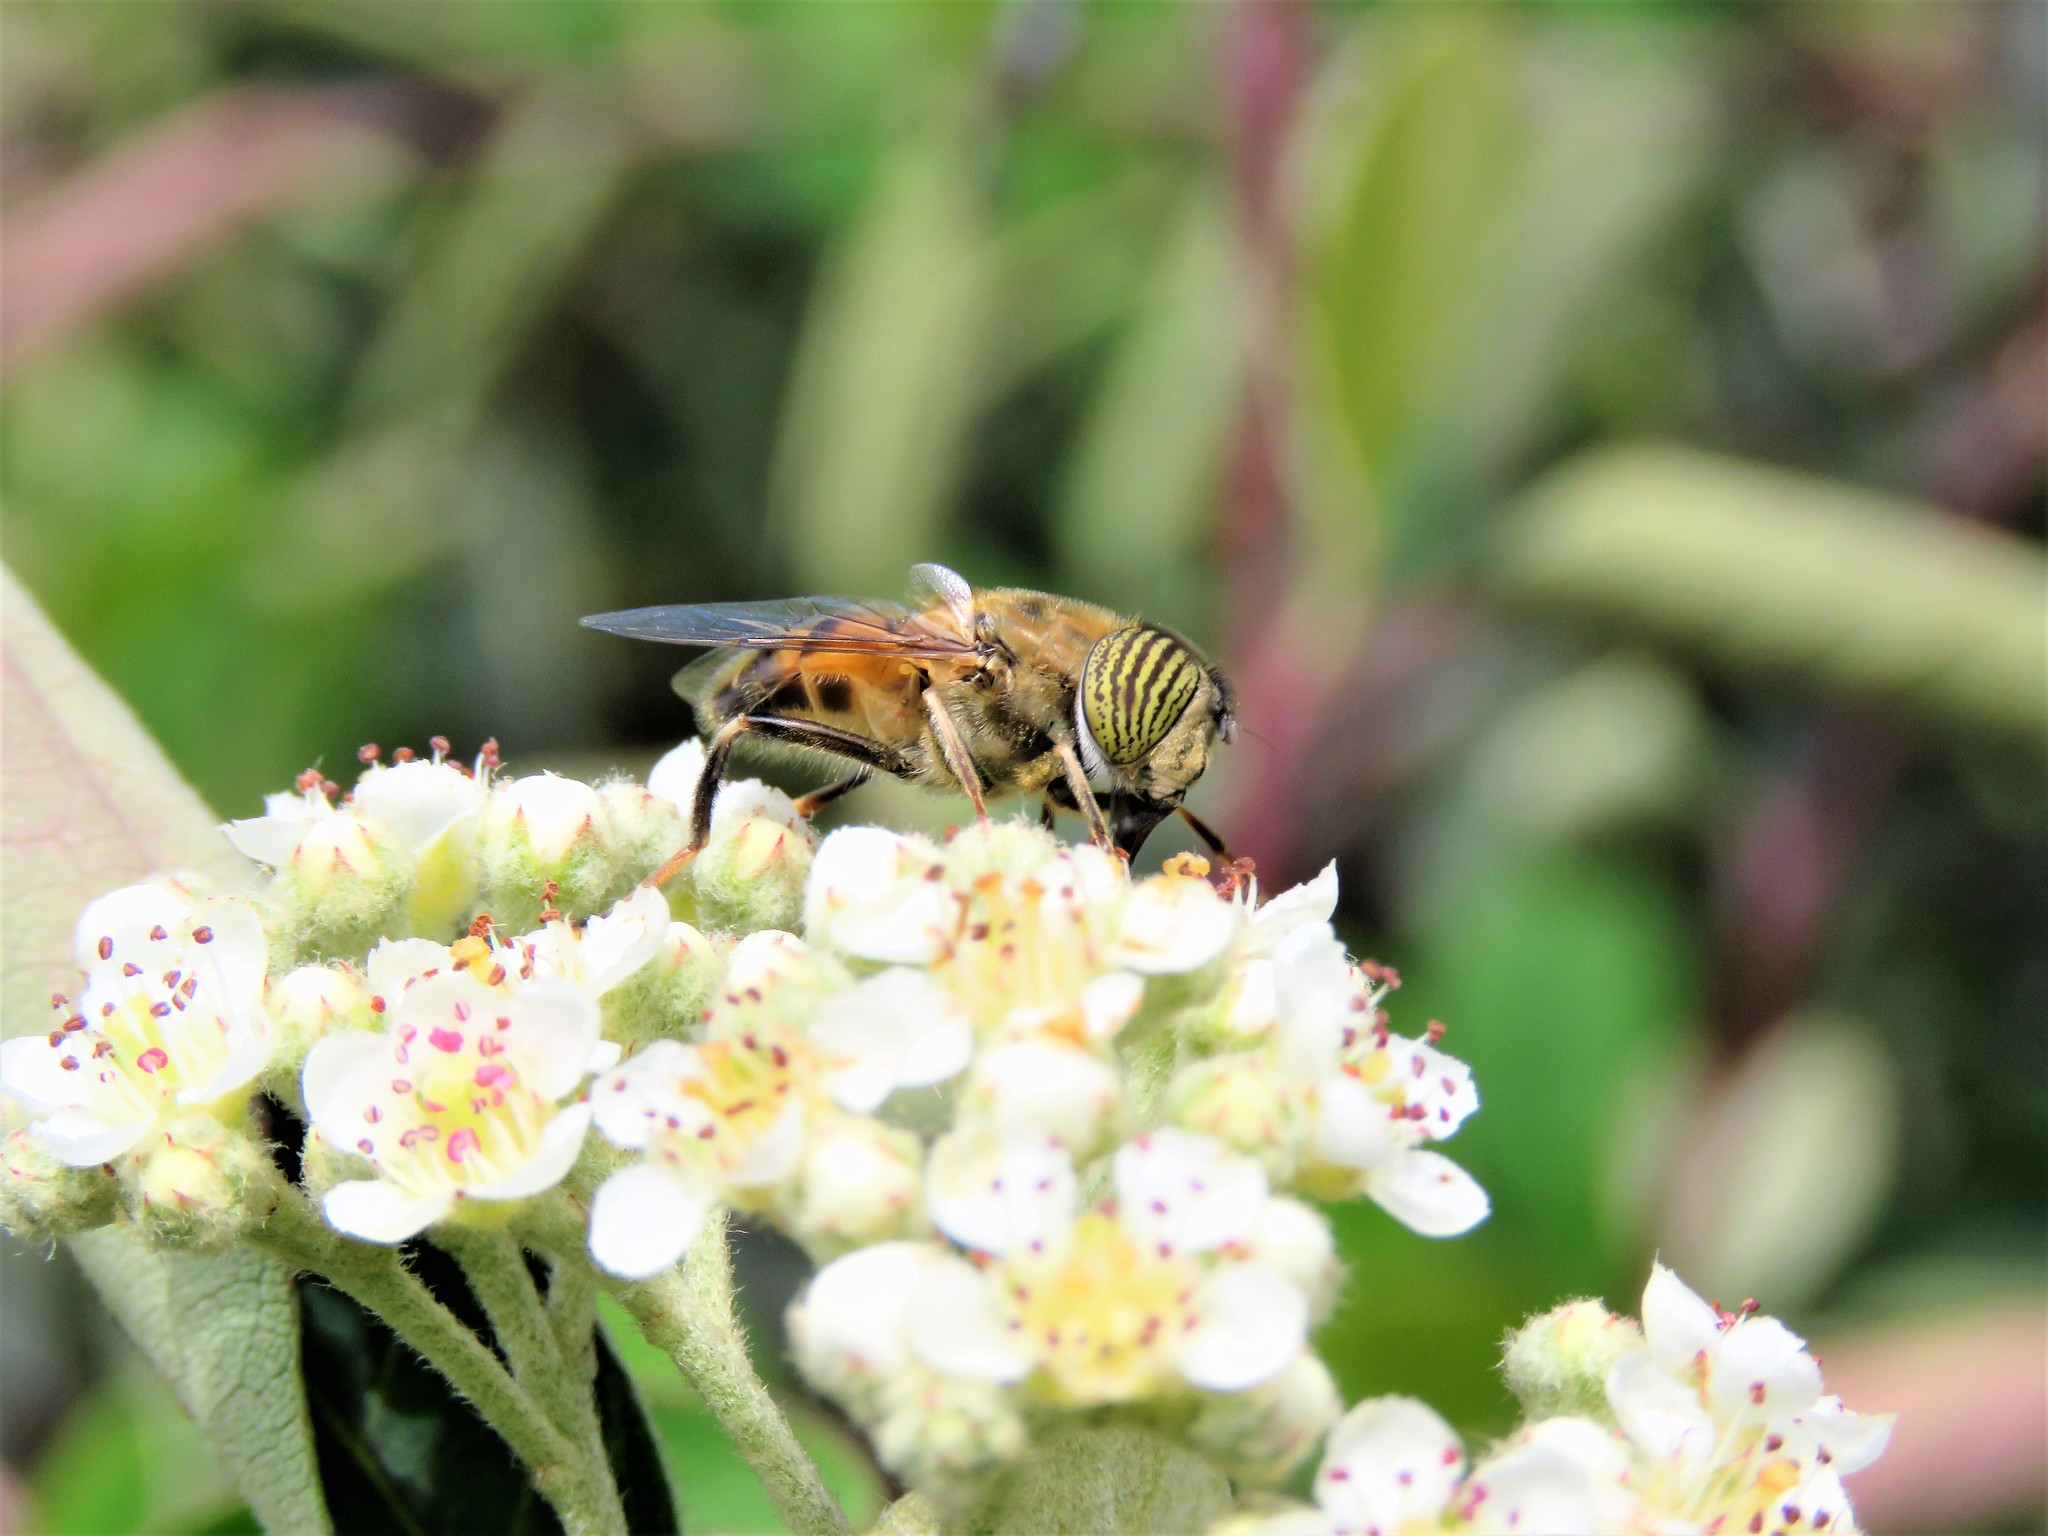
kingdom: Animalia
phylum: Arthropoda
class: Insecta
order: Diptera
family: Syrphidae
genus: Eristalinus
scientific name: Eristalinus taeniops
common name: Syrphid fly
